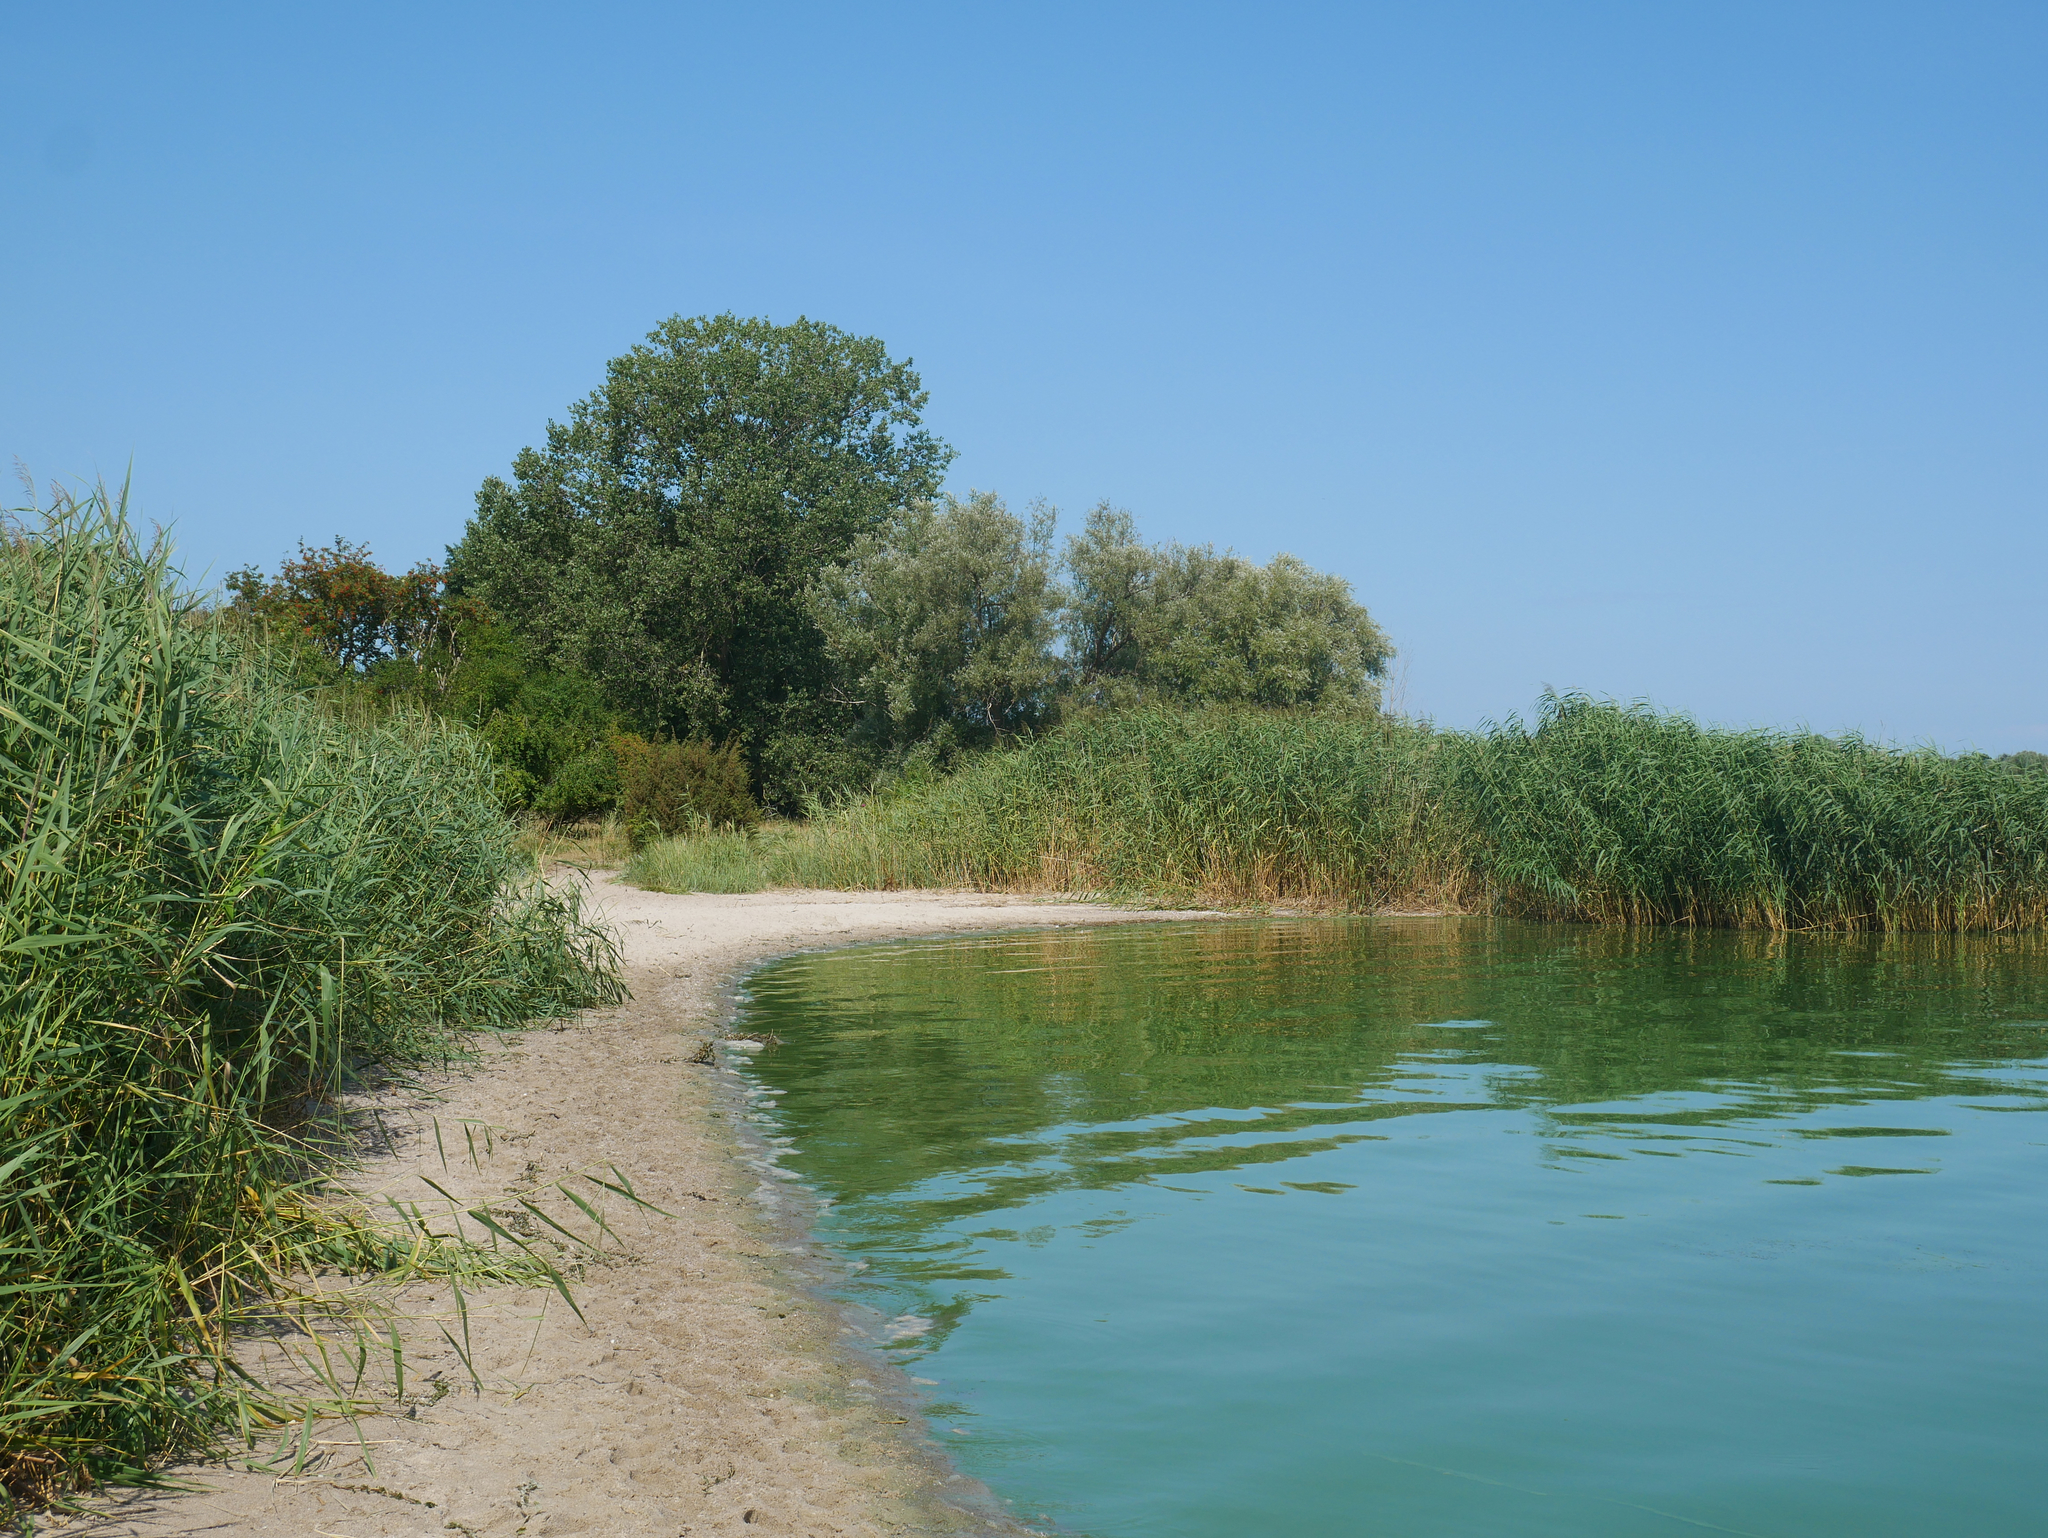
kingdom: Plantae
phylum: Tracheophyta
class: Liliopsida
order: Poales
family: Poaceae
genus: Phragmites
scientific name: Phragmites australis
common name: Common reed
